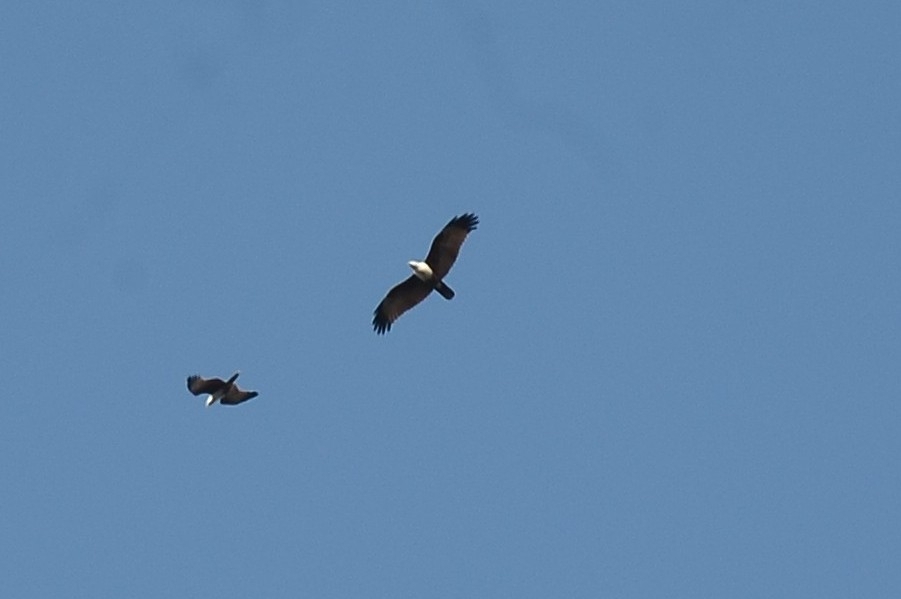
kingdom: Animalia
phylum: Chordata
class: Aves
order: Accipitriformes
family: Accipitridae
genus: Haliastur
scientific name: Haliastur indus
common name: Brahminy kite
